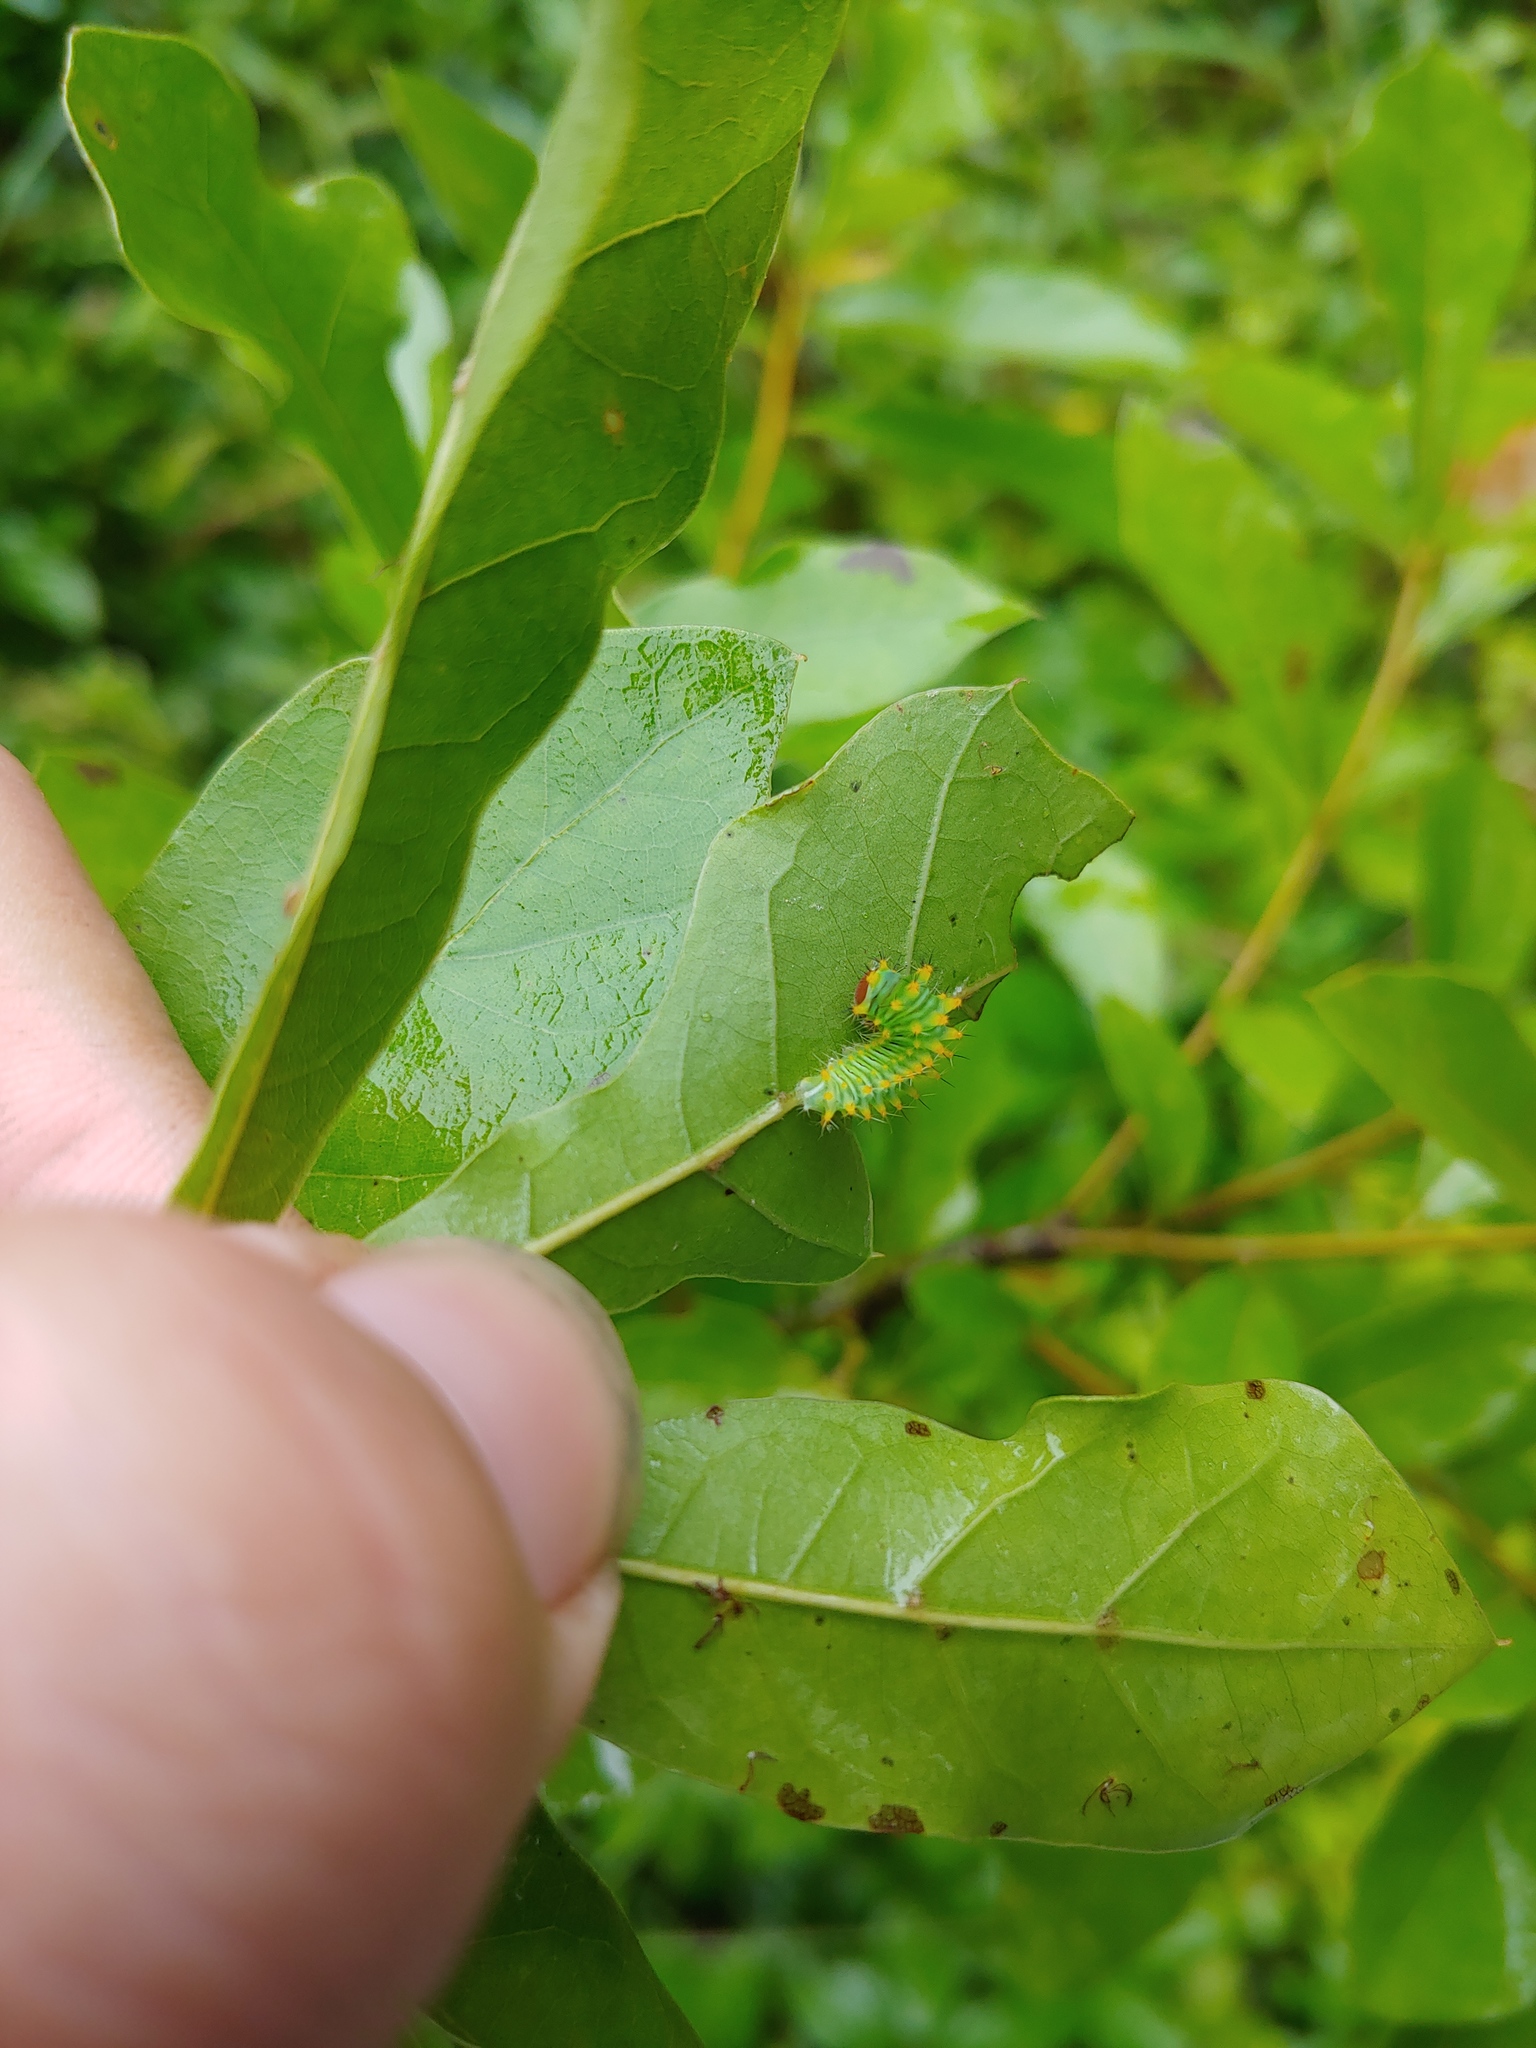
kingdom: Animalia
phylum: Arthropoda
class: Insecta
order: Lepidoptera
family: Saturniidae
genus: Antheraea
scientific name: Antheraea polyphemus
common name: Polyphemus moth
